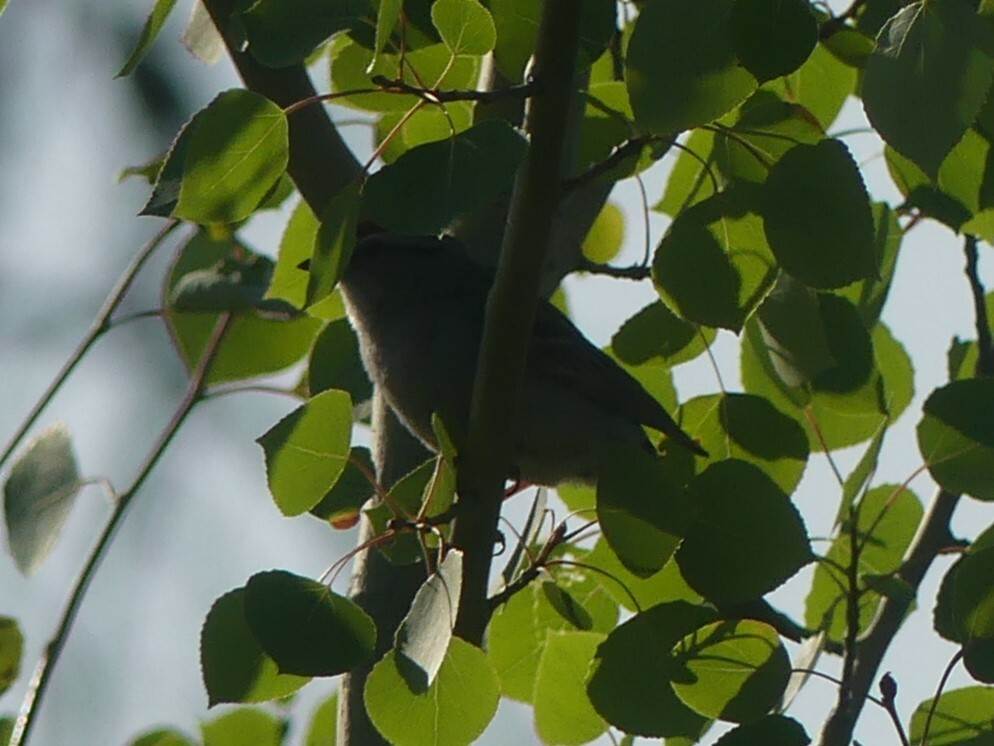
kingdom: Animalia
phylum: Chordata
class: Aves
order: Passeriformes
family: Passerellidae
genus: Spizella
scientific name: Spizella passerina
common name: Chipping sparrow
